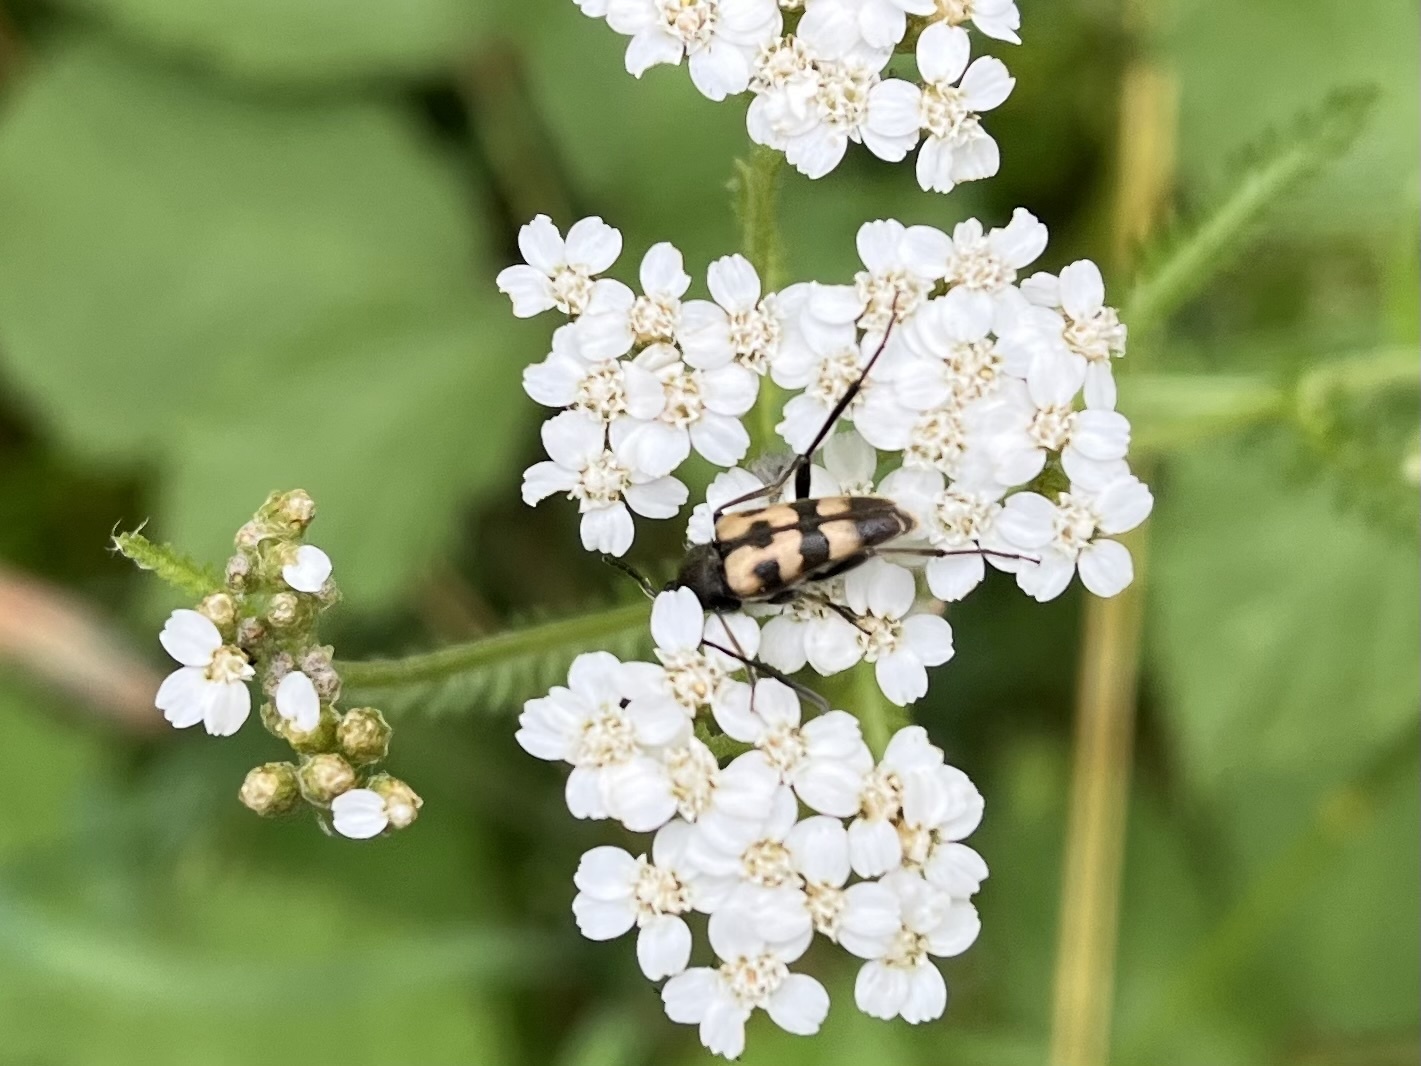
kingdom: Animalia
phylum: Arthropoda
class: Insecta
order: Coleoptera
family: Cerambycidae
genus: Pachytodes
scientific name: Pachytodes
